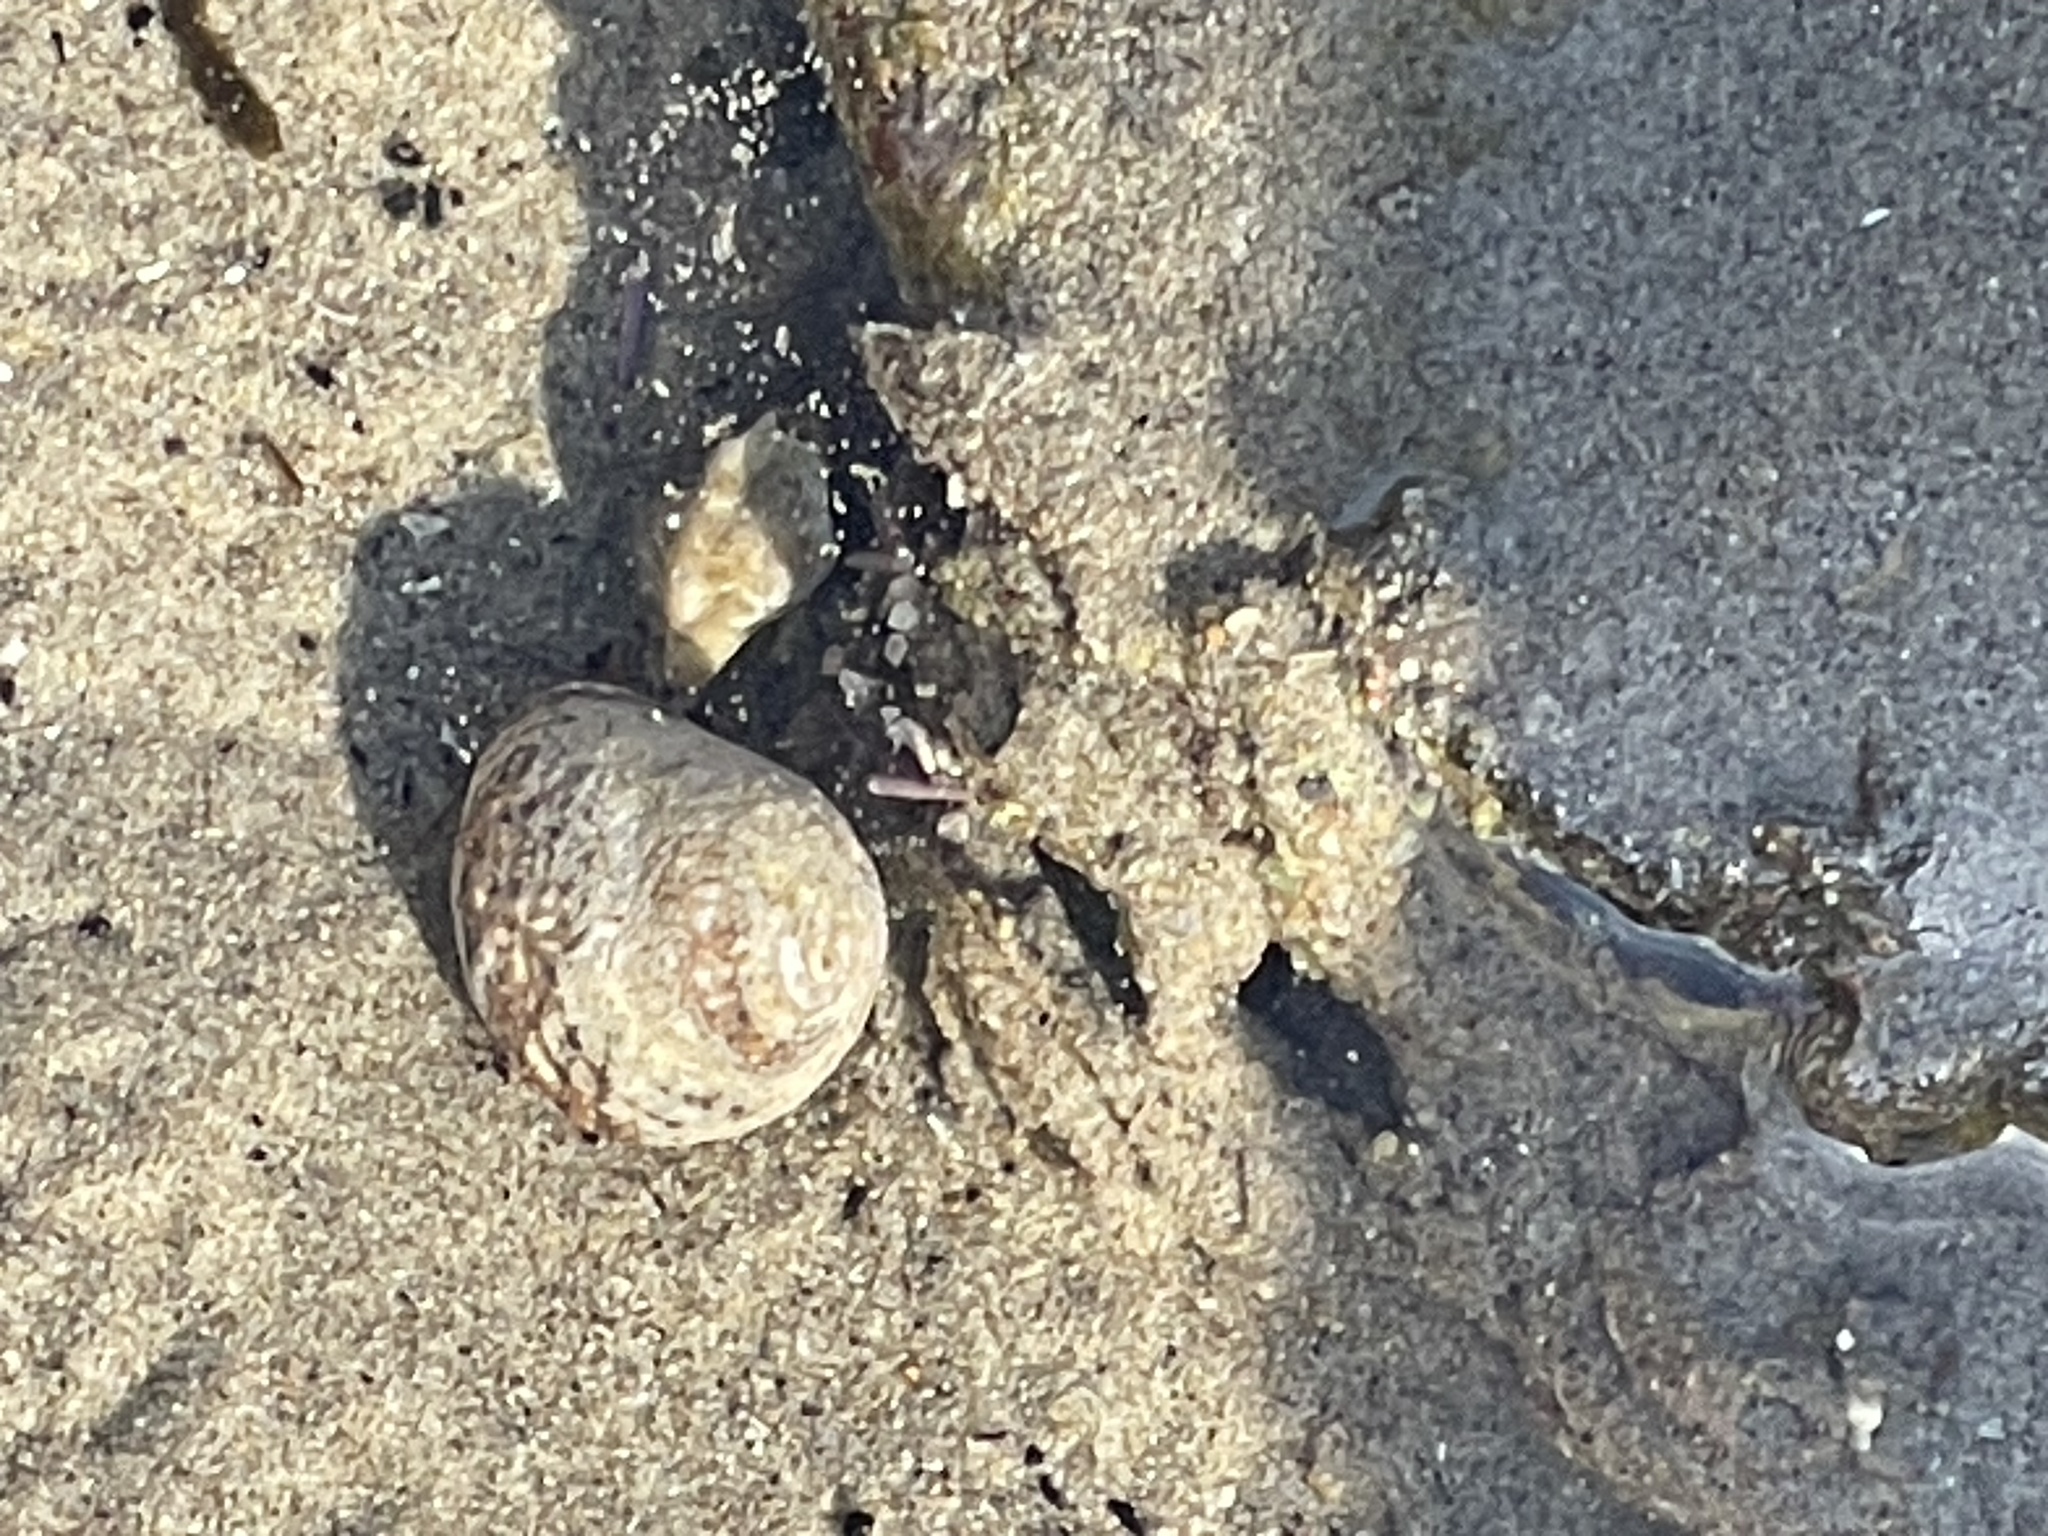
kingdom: Animalia
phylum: Mollusca
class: Gastropoda
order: Trochida
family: Tegulidae
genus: Tegula
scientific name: Tegula eiseni
